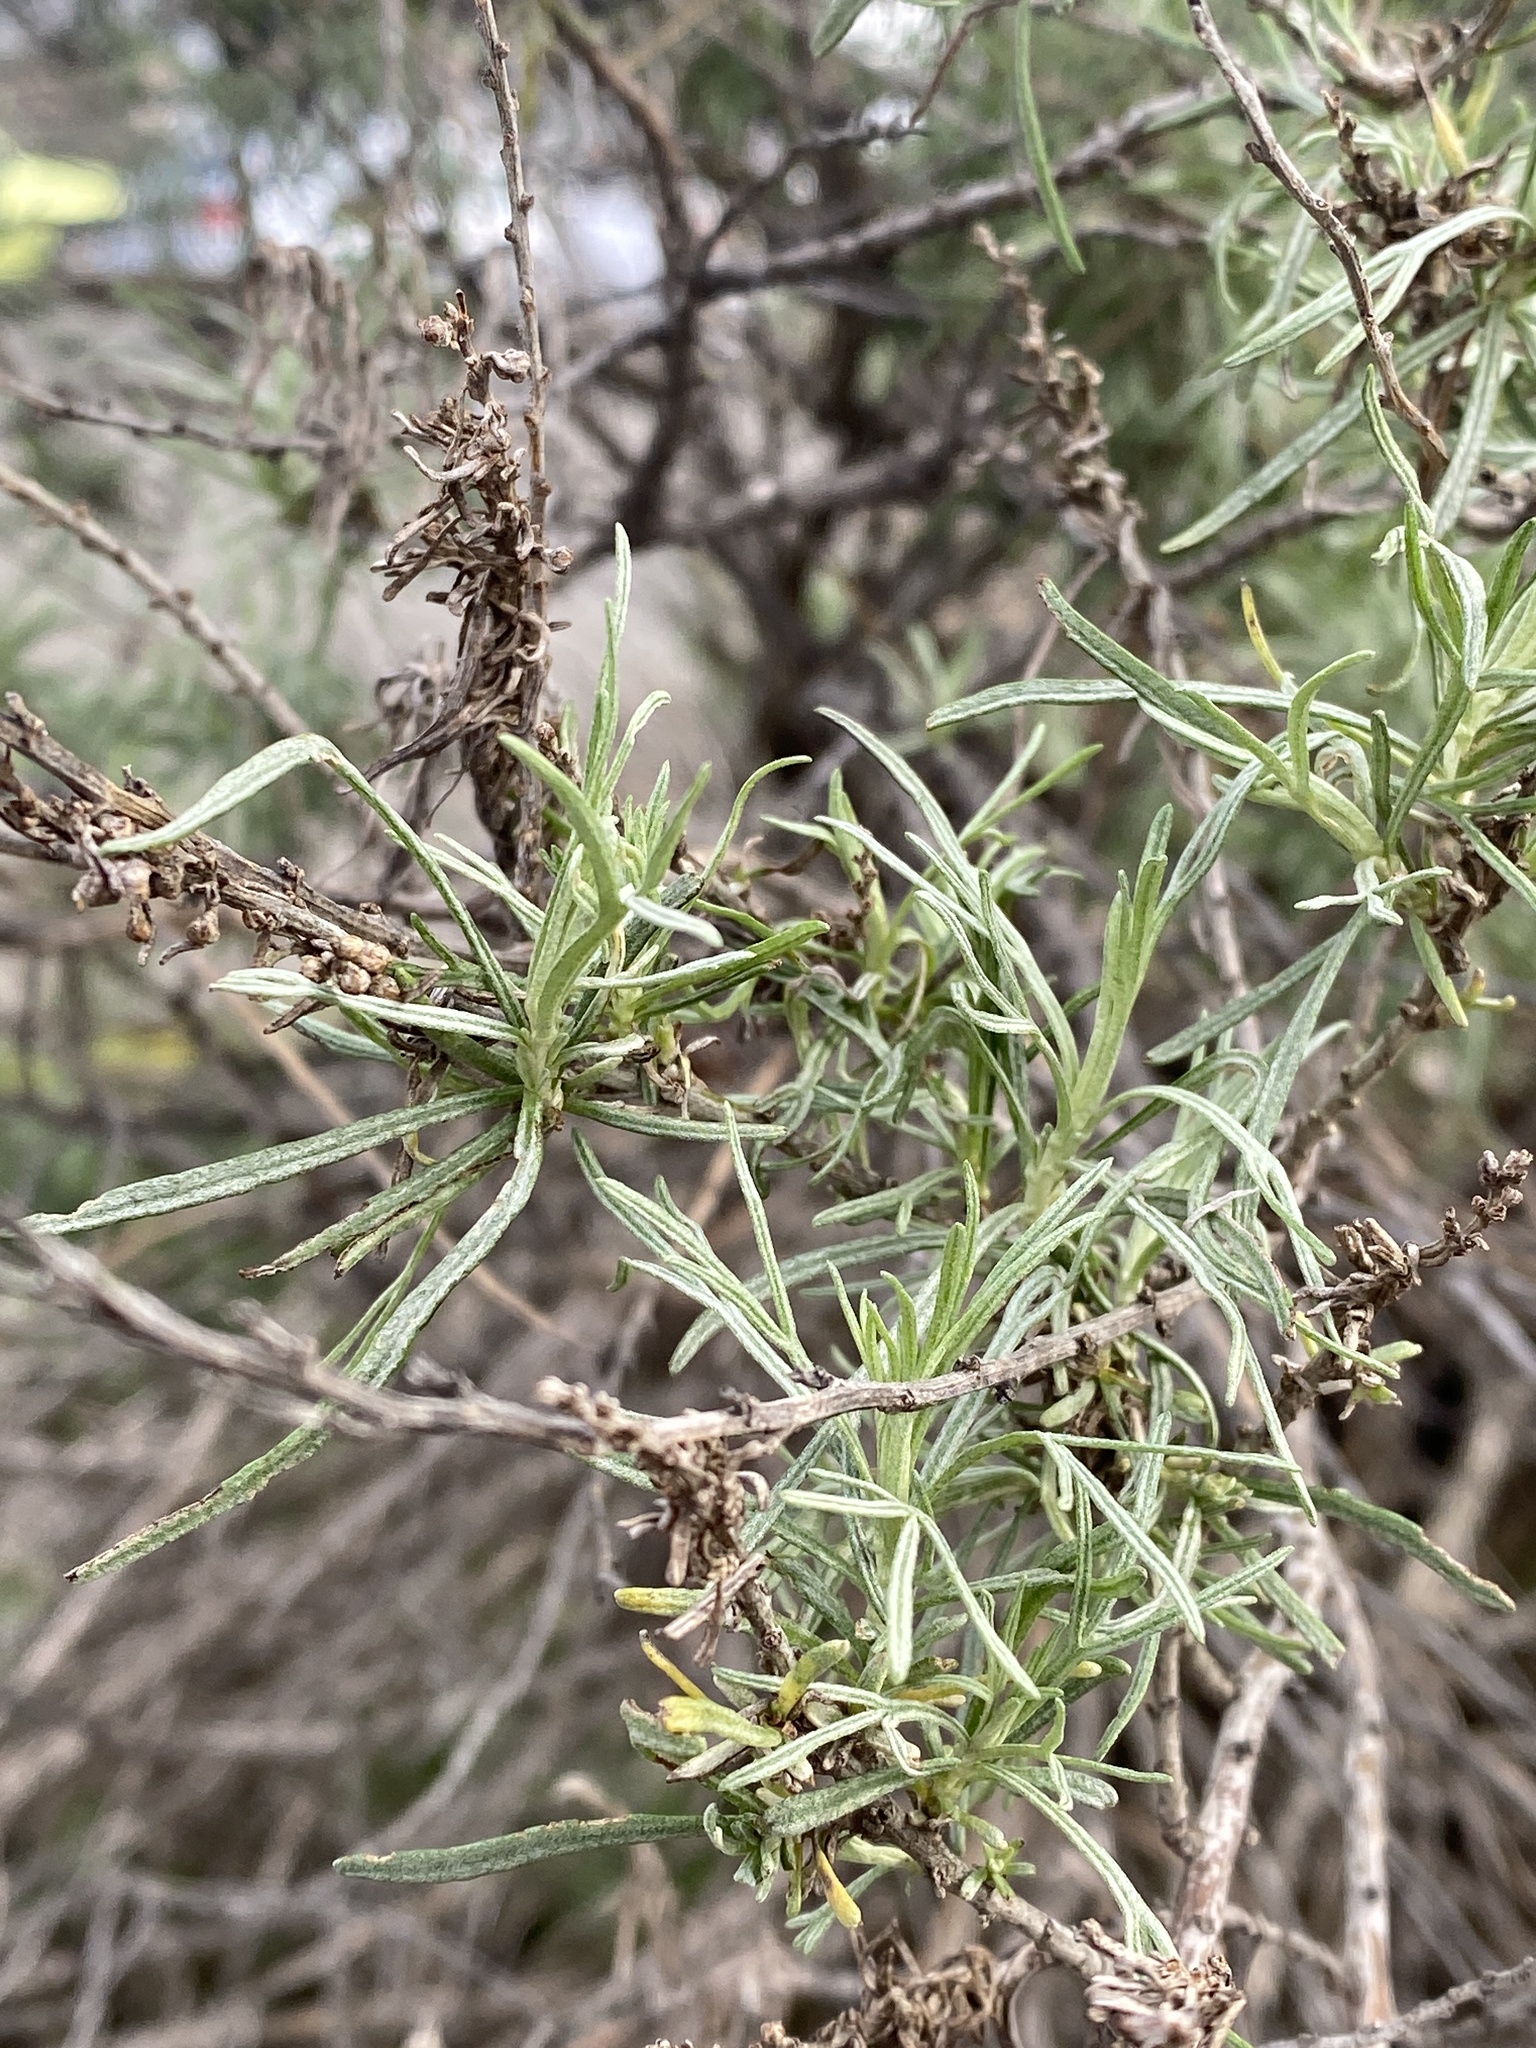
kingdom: Plantae
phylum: Tracheophyta
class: Magnoliopsida
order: Asterales
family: Asteraceae
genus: Artemisia
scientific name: Artemisia californica
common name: California sagebrush
